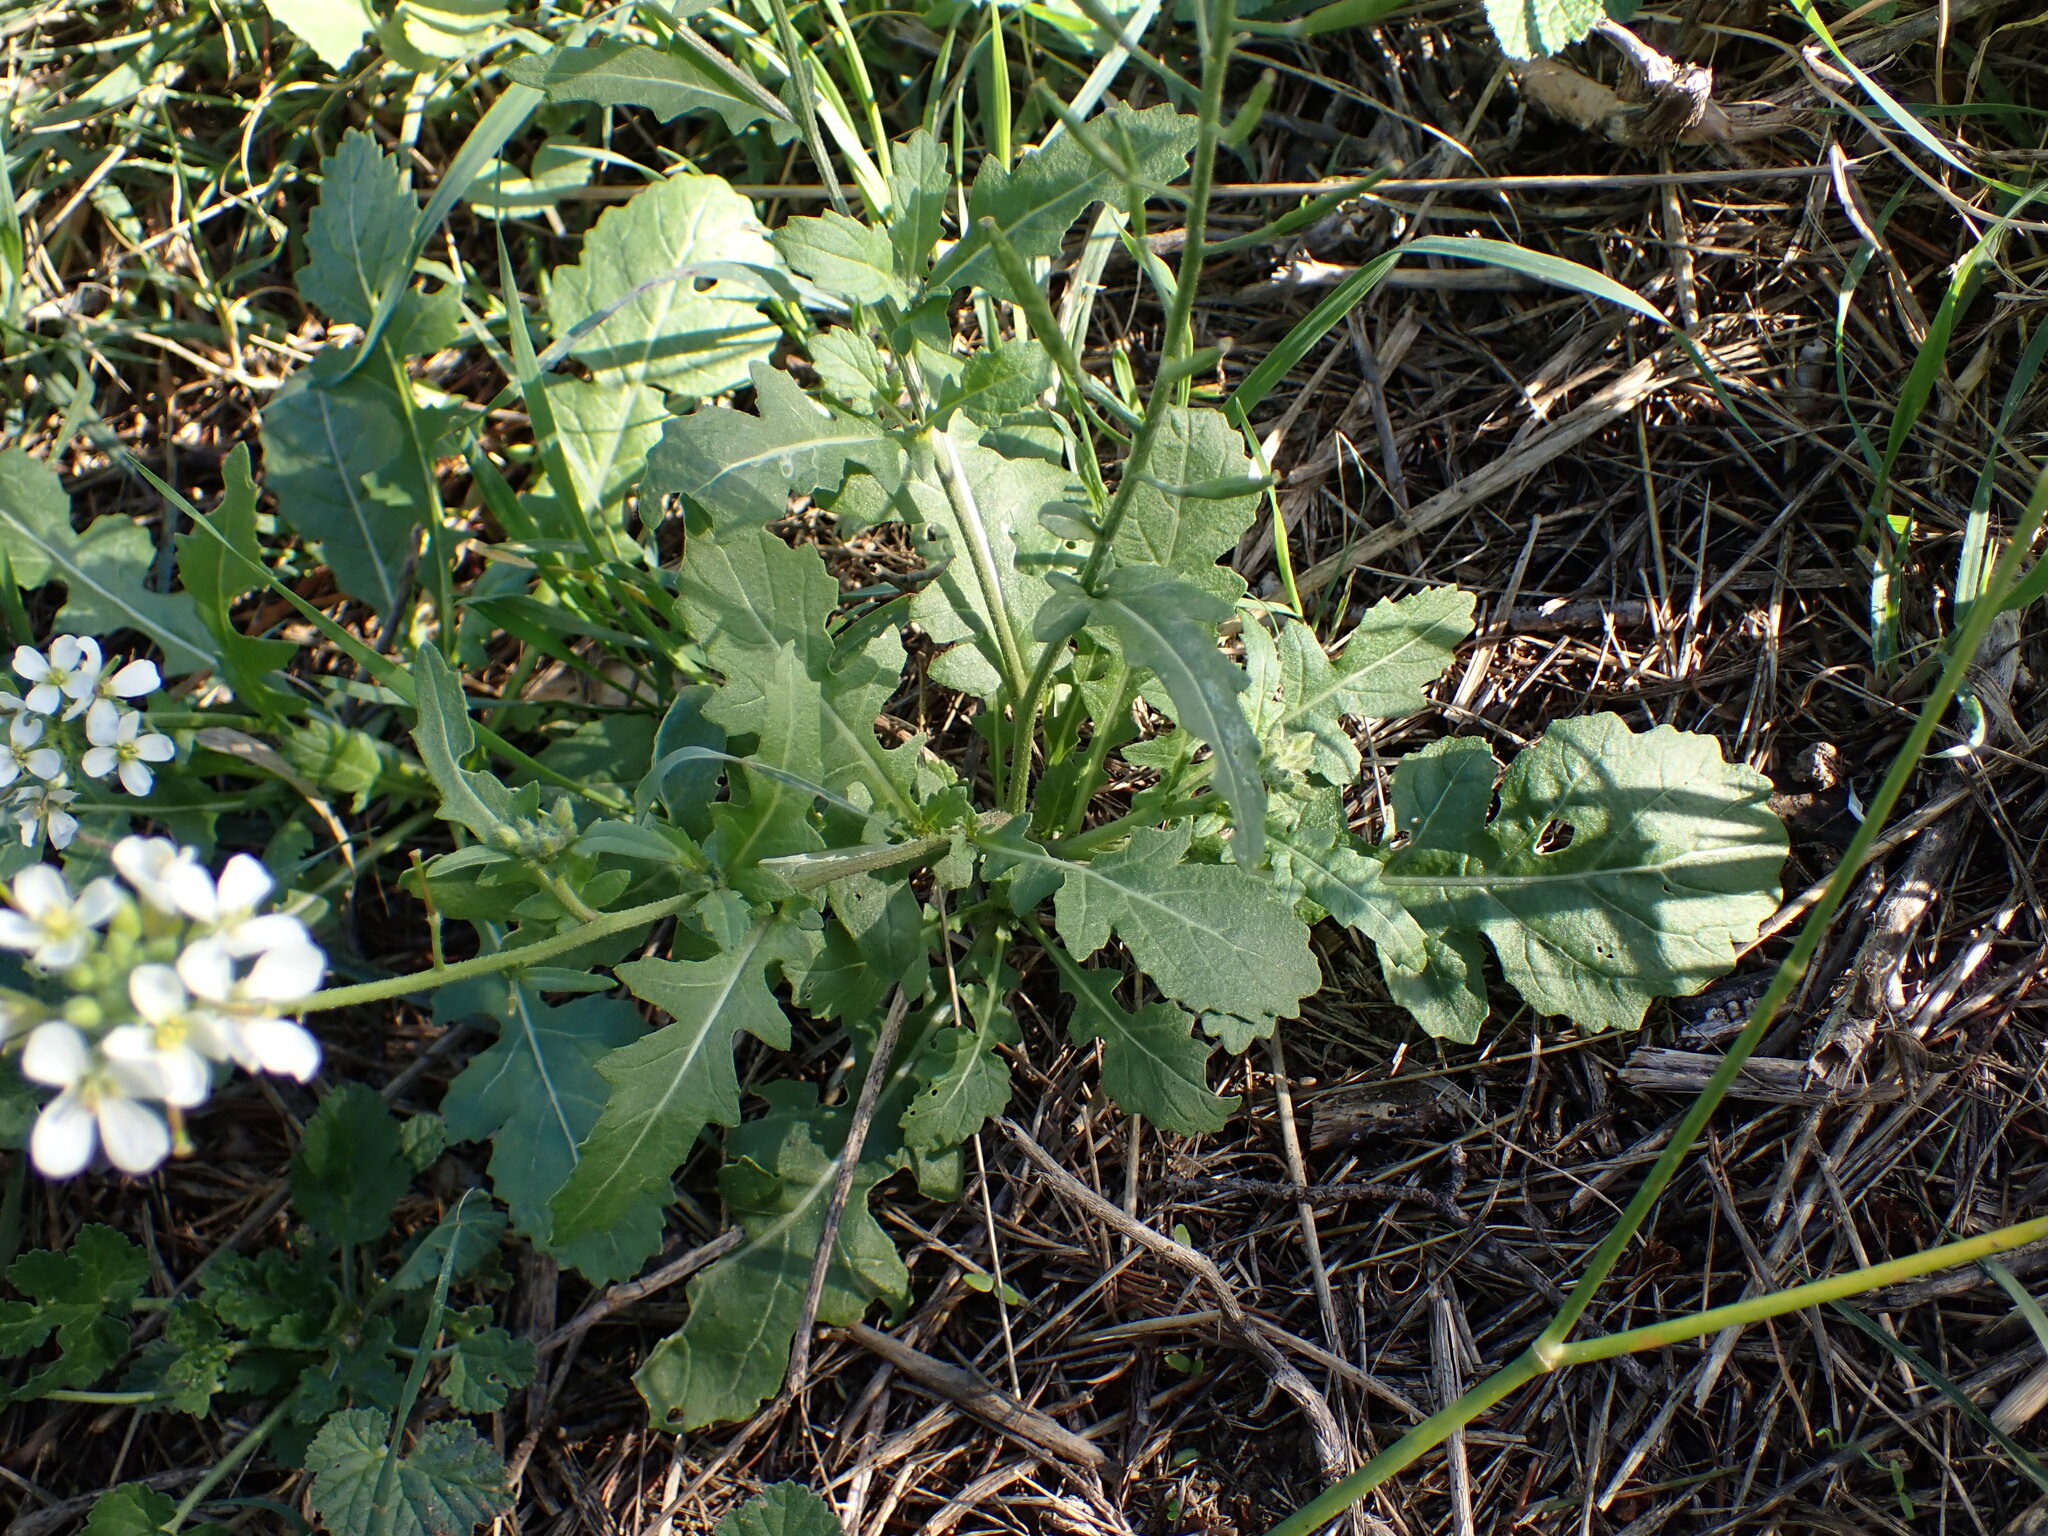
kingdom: Plantae
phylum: Tracheophyta
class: Magnoliopsida
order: Brassicales
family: Brassicaceae
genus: Diplotaxis
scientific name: Diplotaxis erucoides
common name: White rocket
